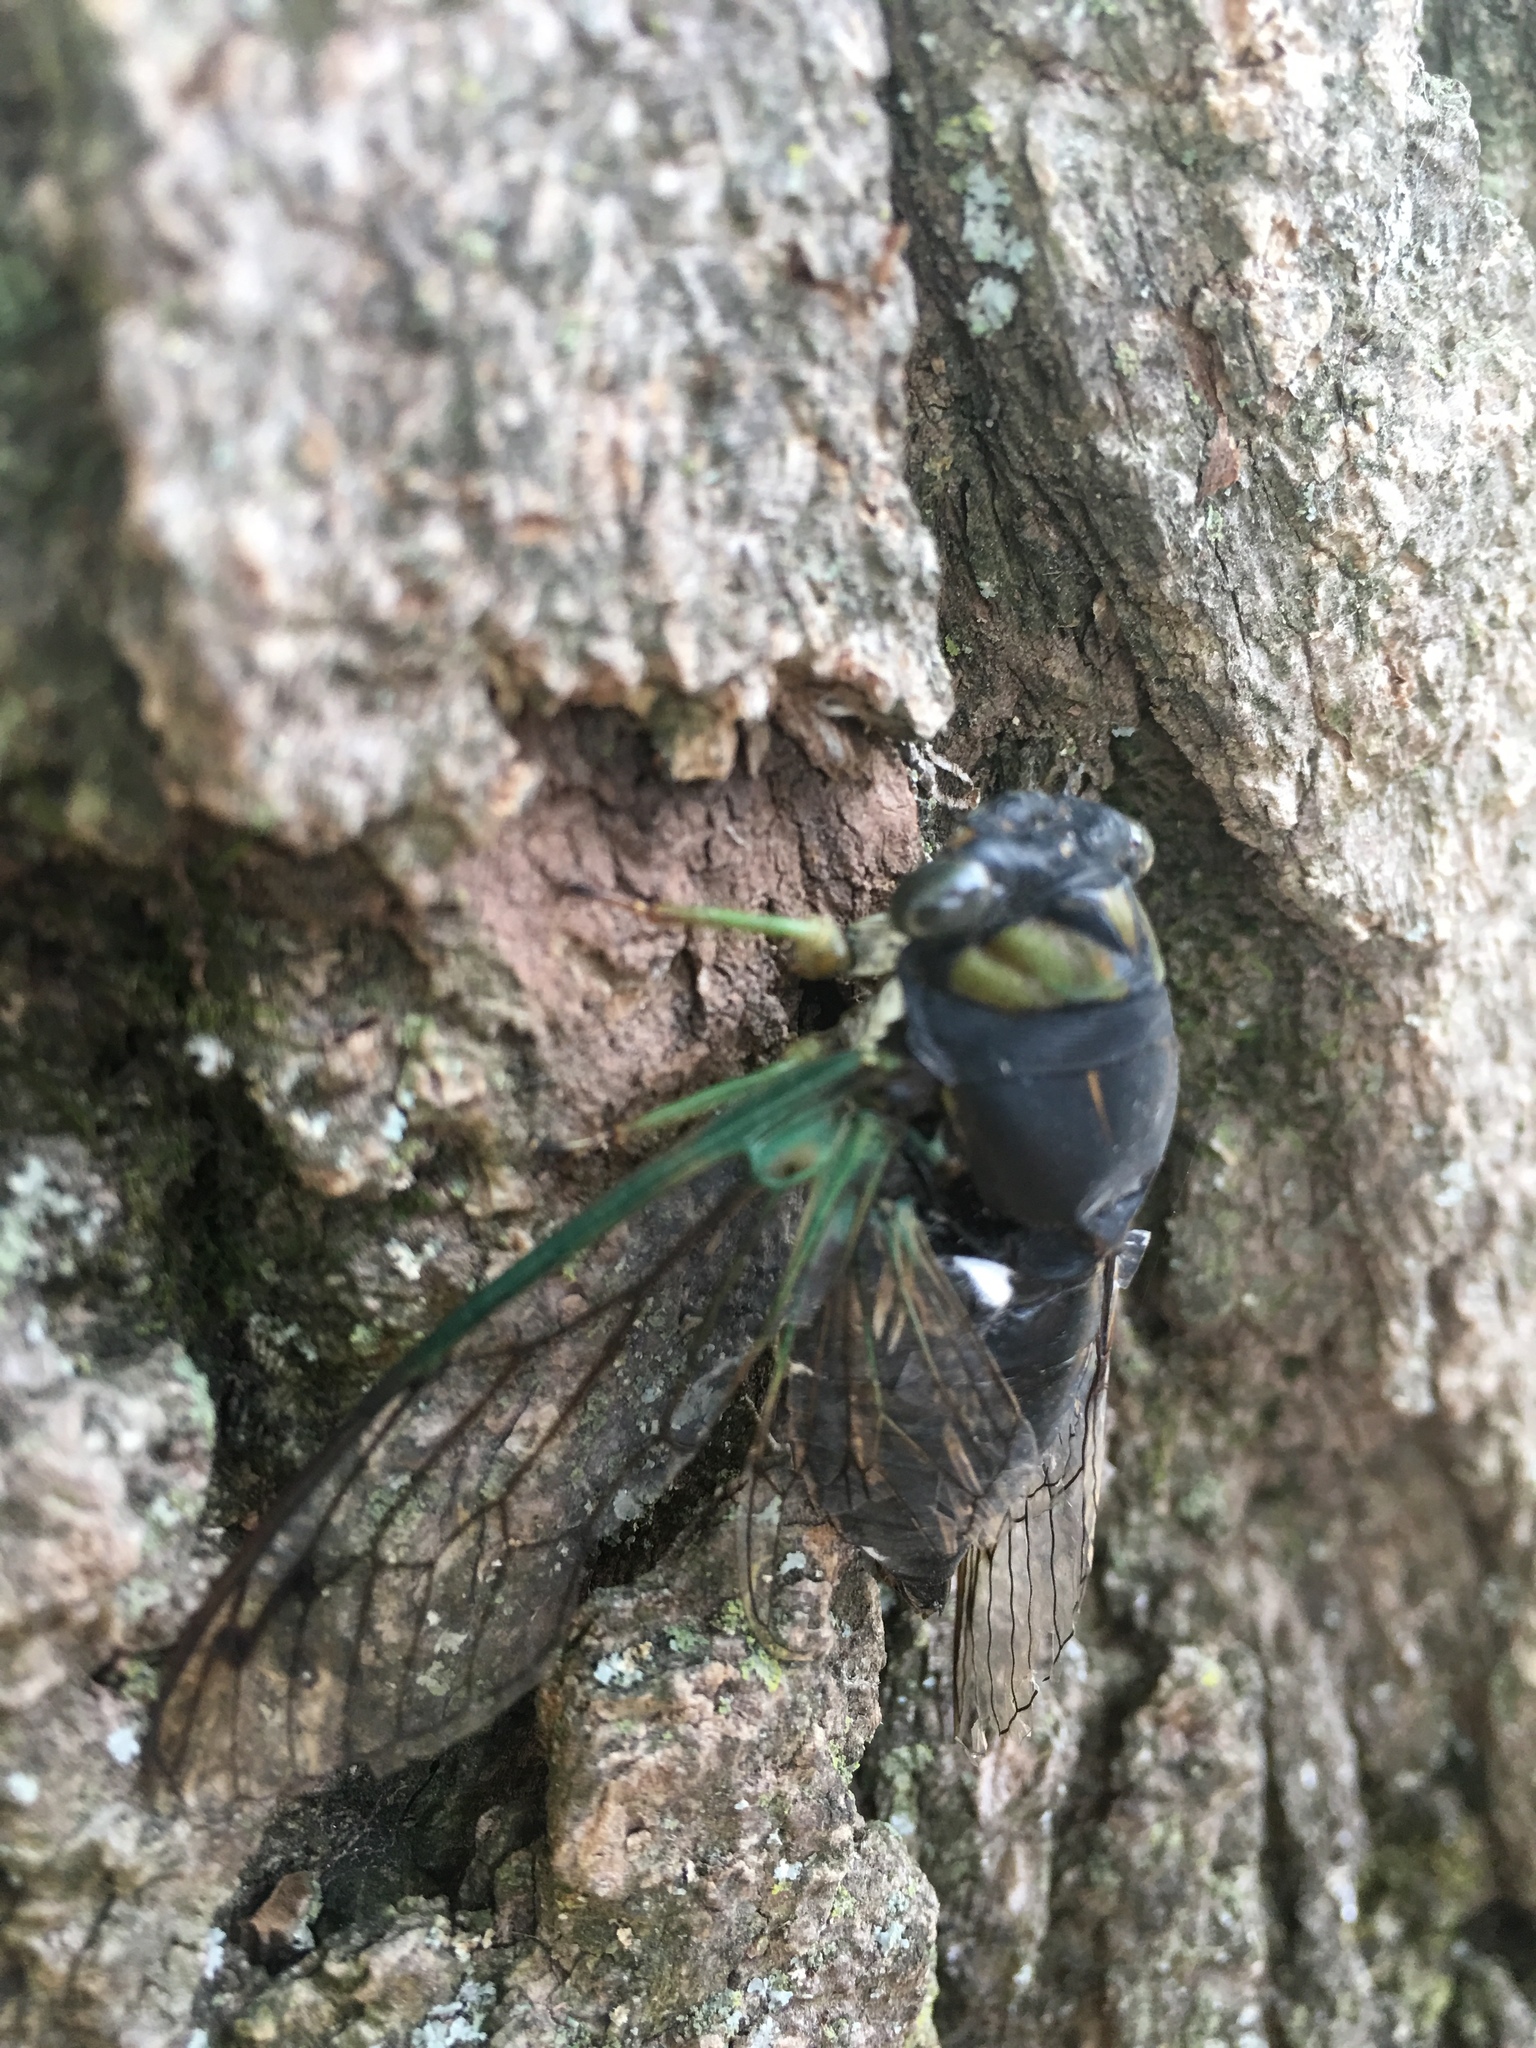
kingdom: Animalia
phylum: Arthropoda
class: Insecta
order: Hemiptera
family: Cicadidae
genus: Neotibicen
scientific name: Neotibicen tibicen
